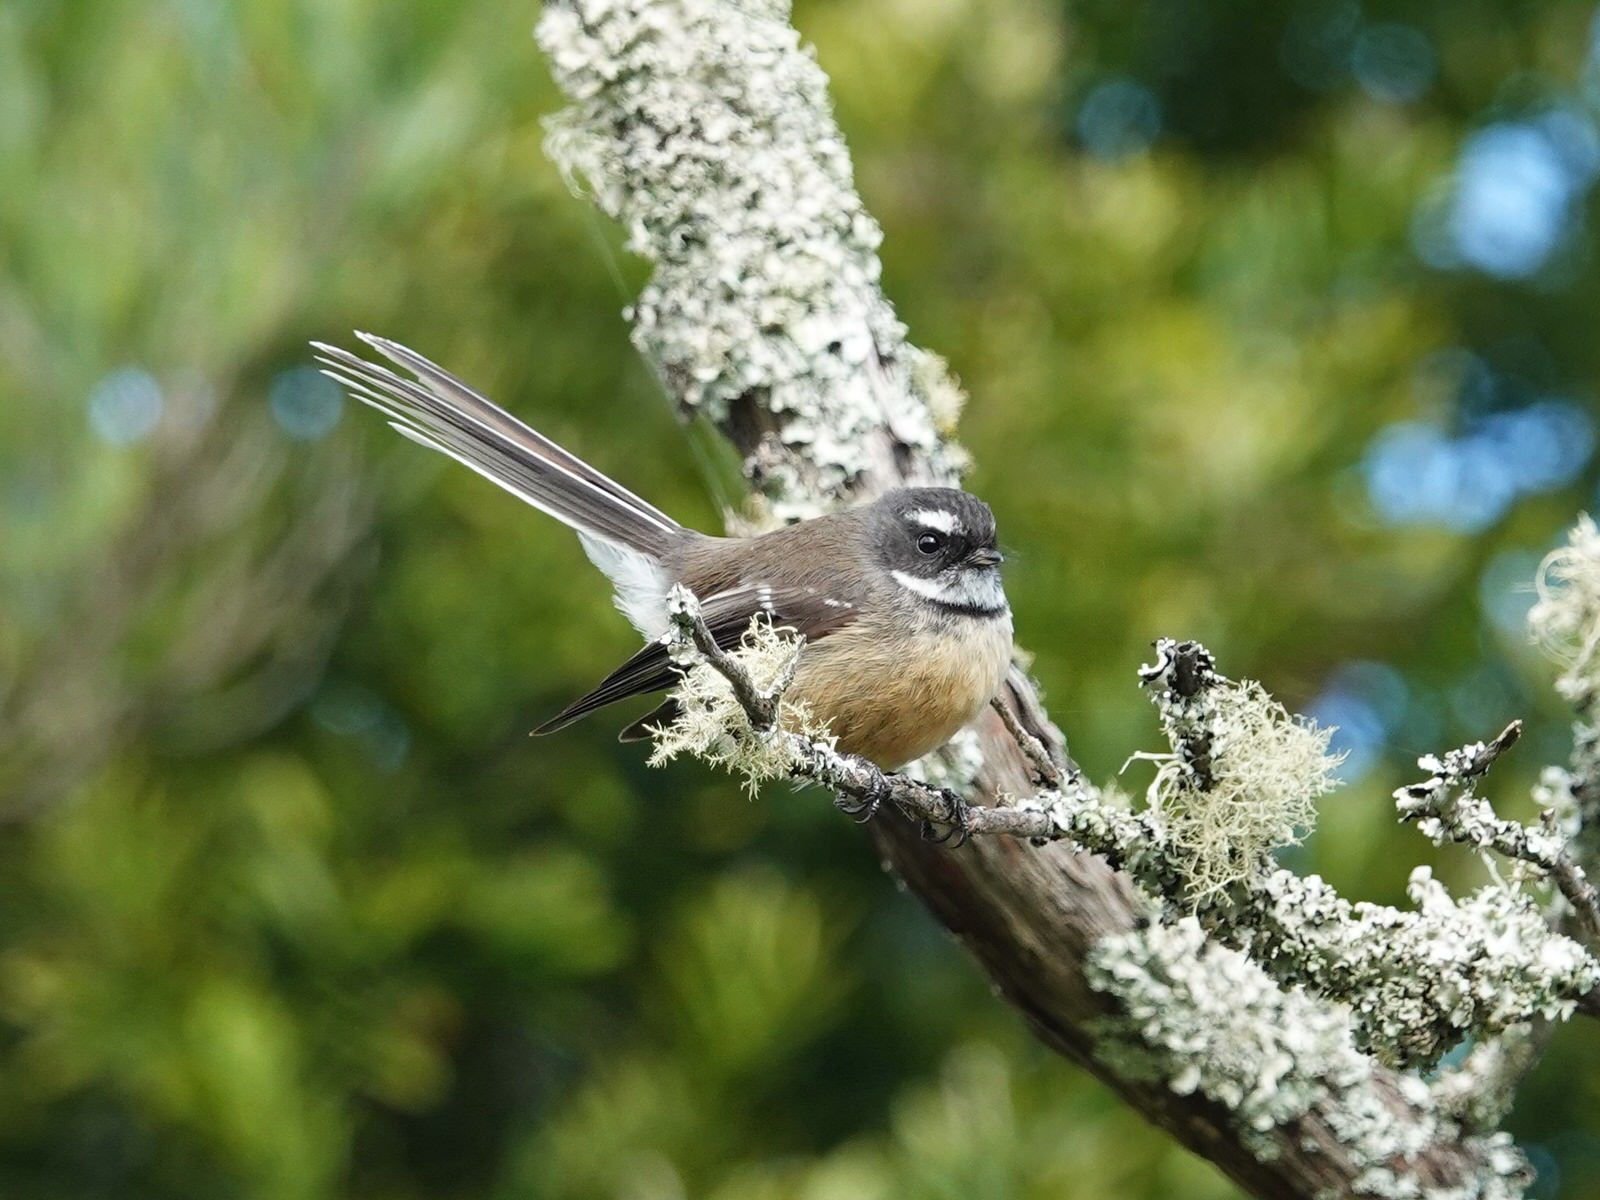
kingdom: Animalia
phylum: Chordata
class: Aves
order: Passeriformes
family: Rhipiduridae
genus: Rhipidura
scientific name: Rhipidura fuliginosa
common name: New zealand fantail
